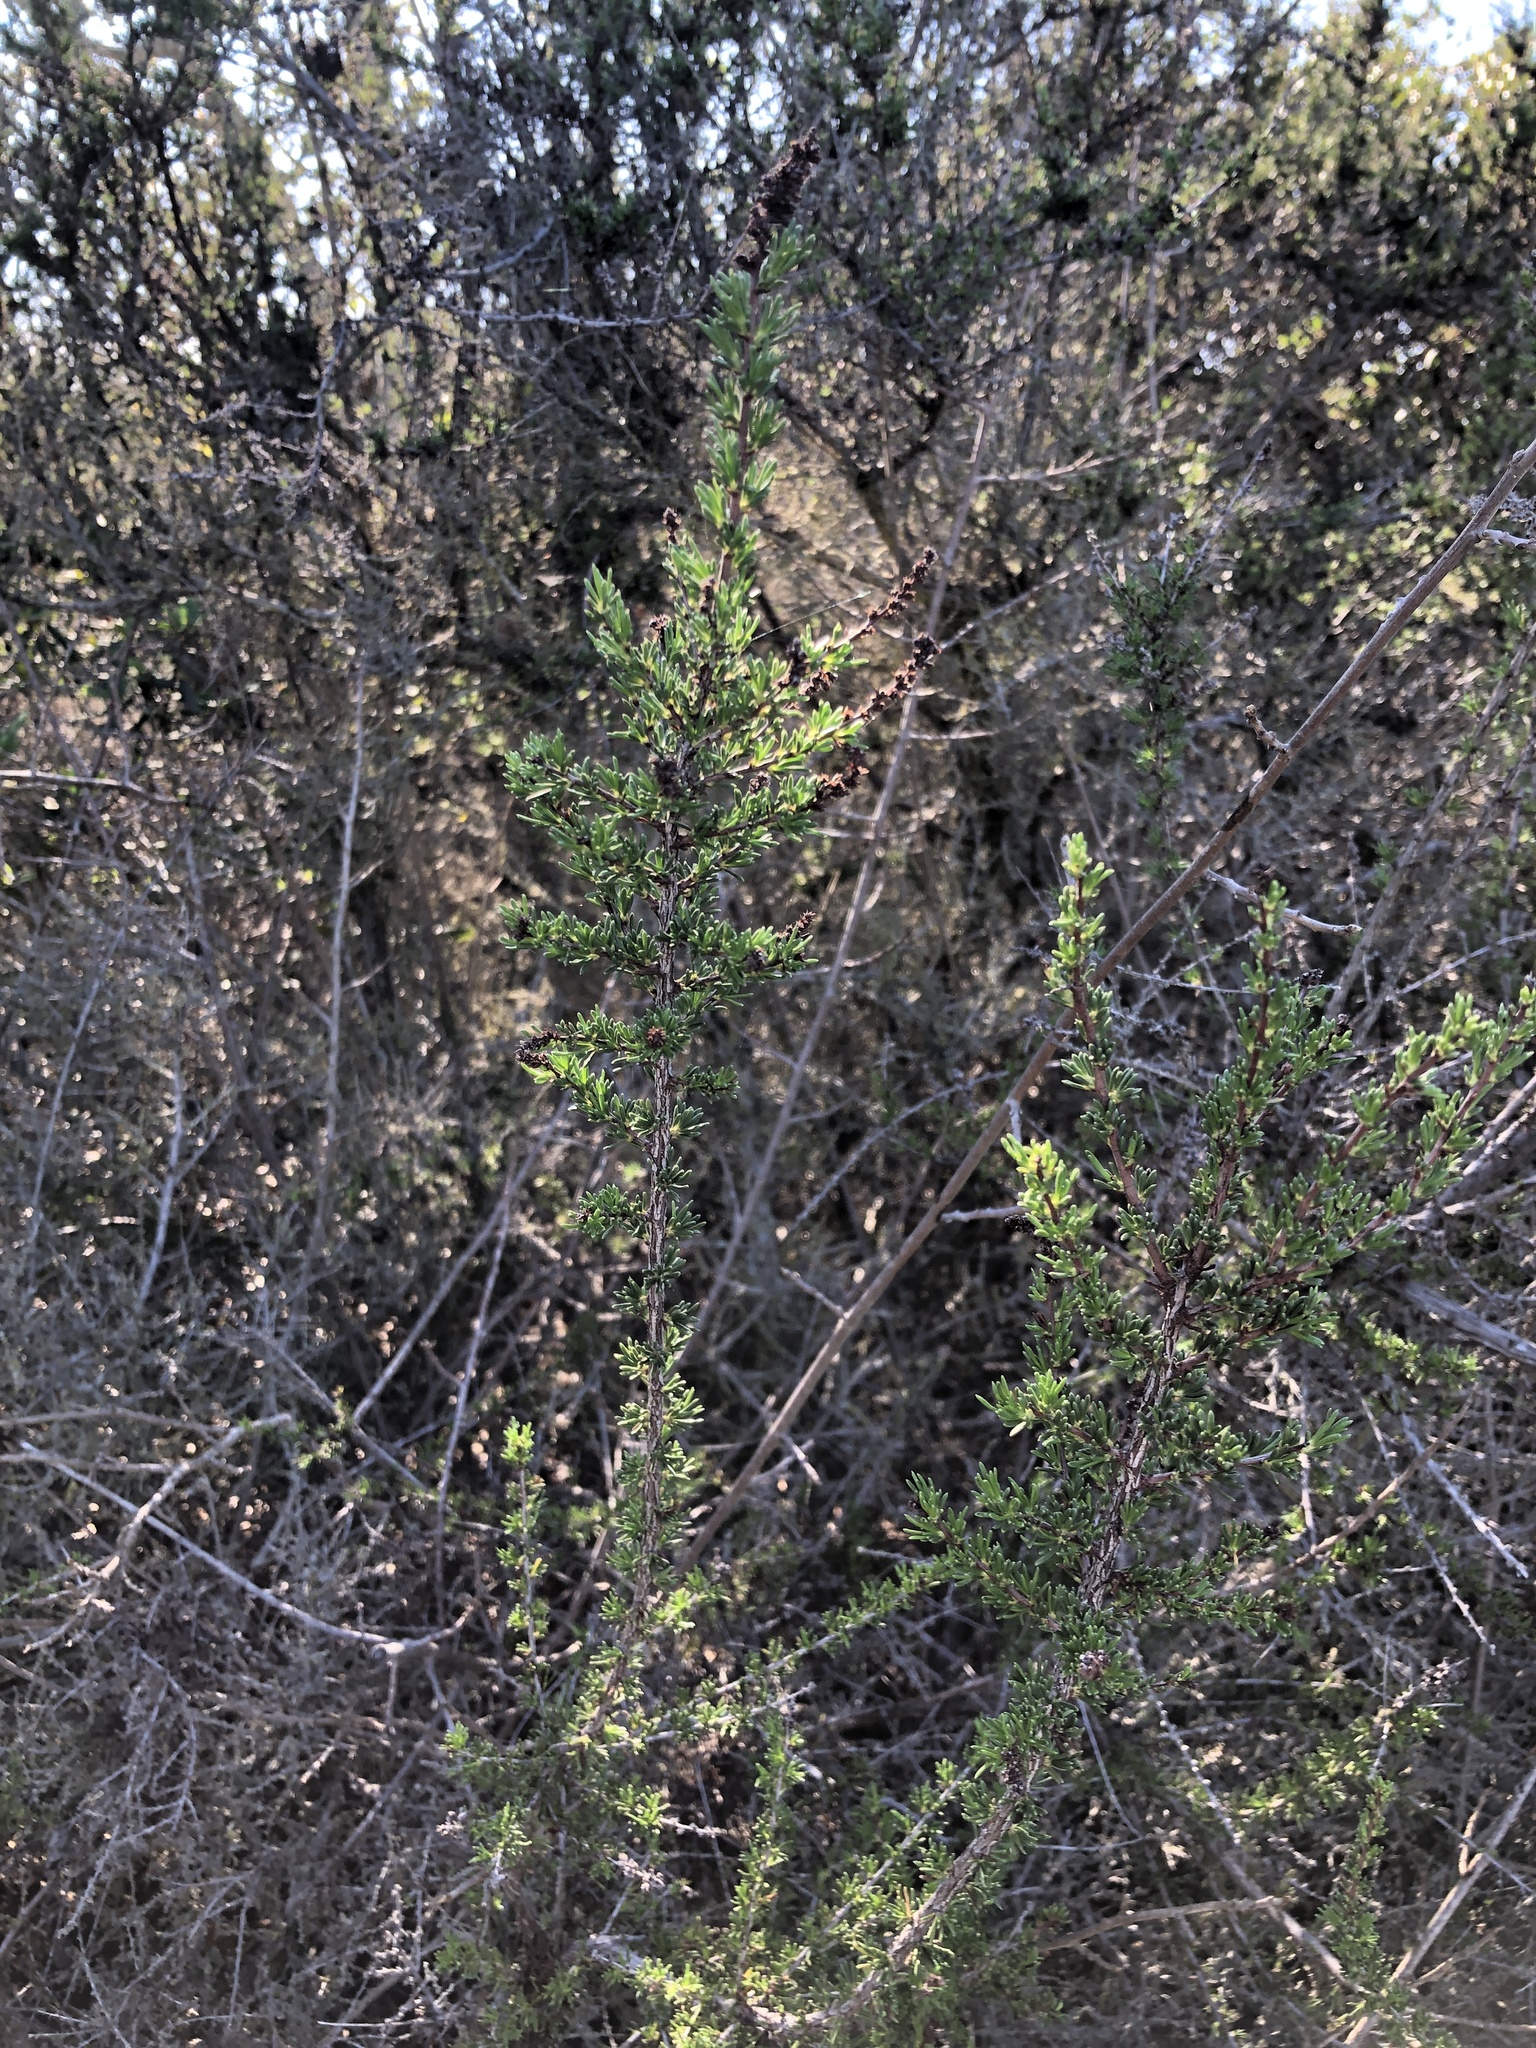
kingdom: Plantae
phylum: Tracheophyta
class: Magnoliopsida
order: Rosales
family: Rosaceae
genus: Adenostoma
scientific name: Adenostoma fasciculatum
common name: Chamise
